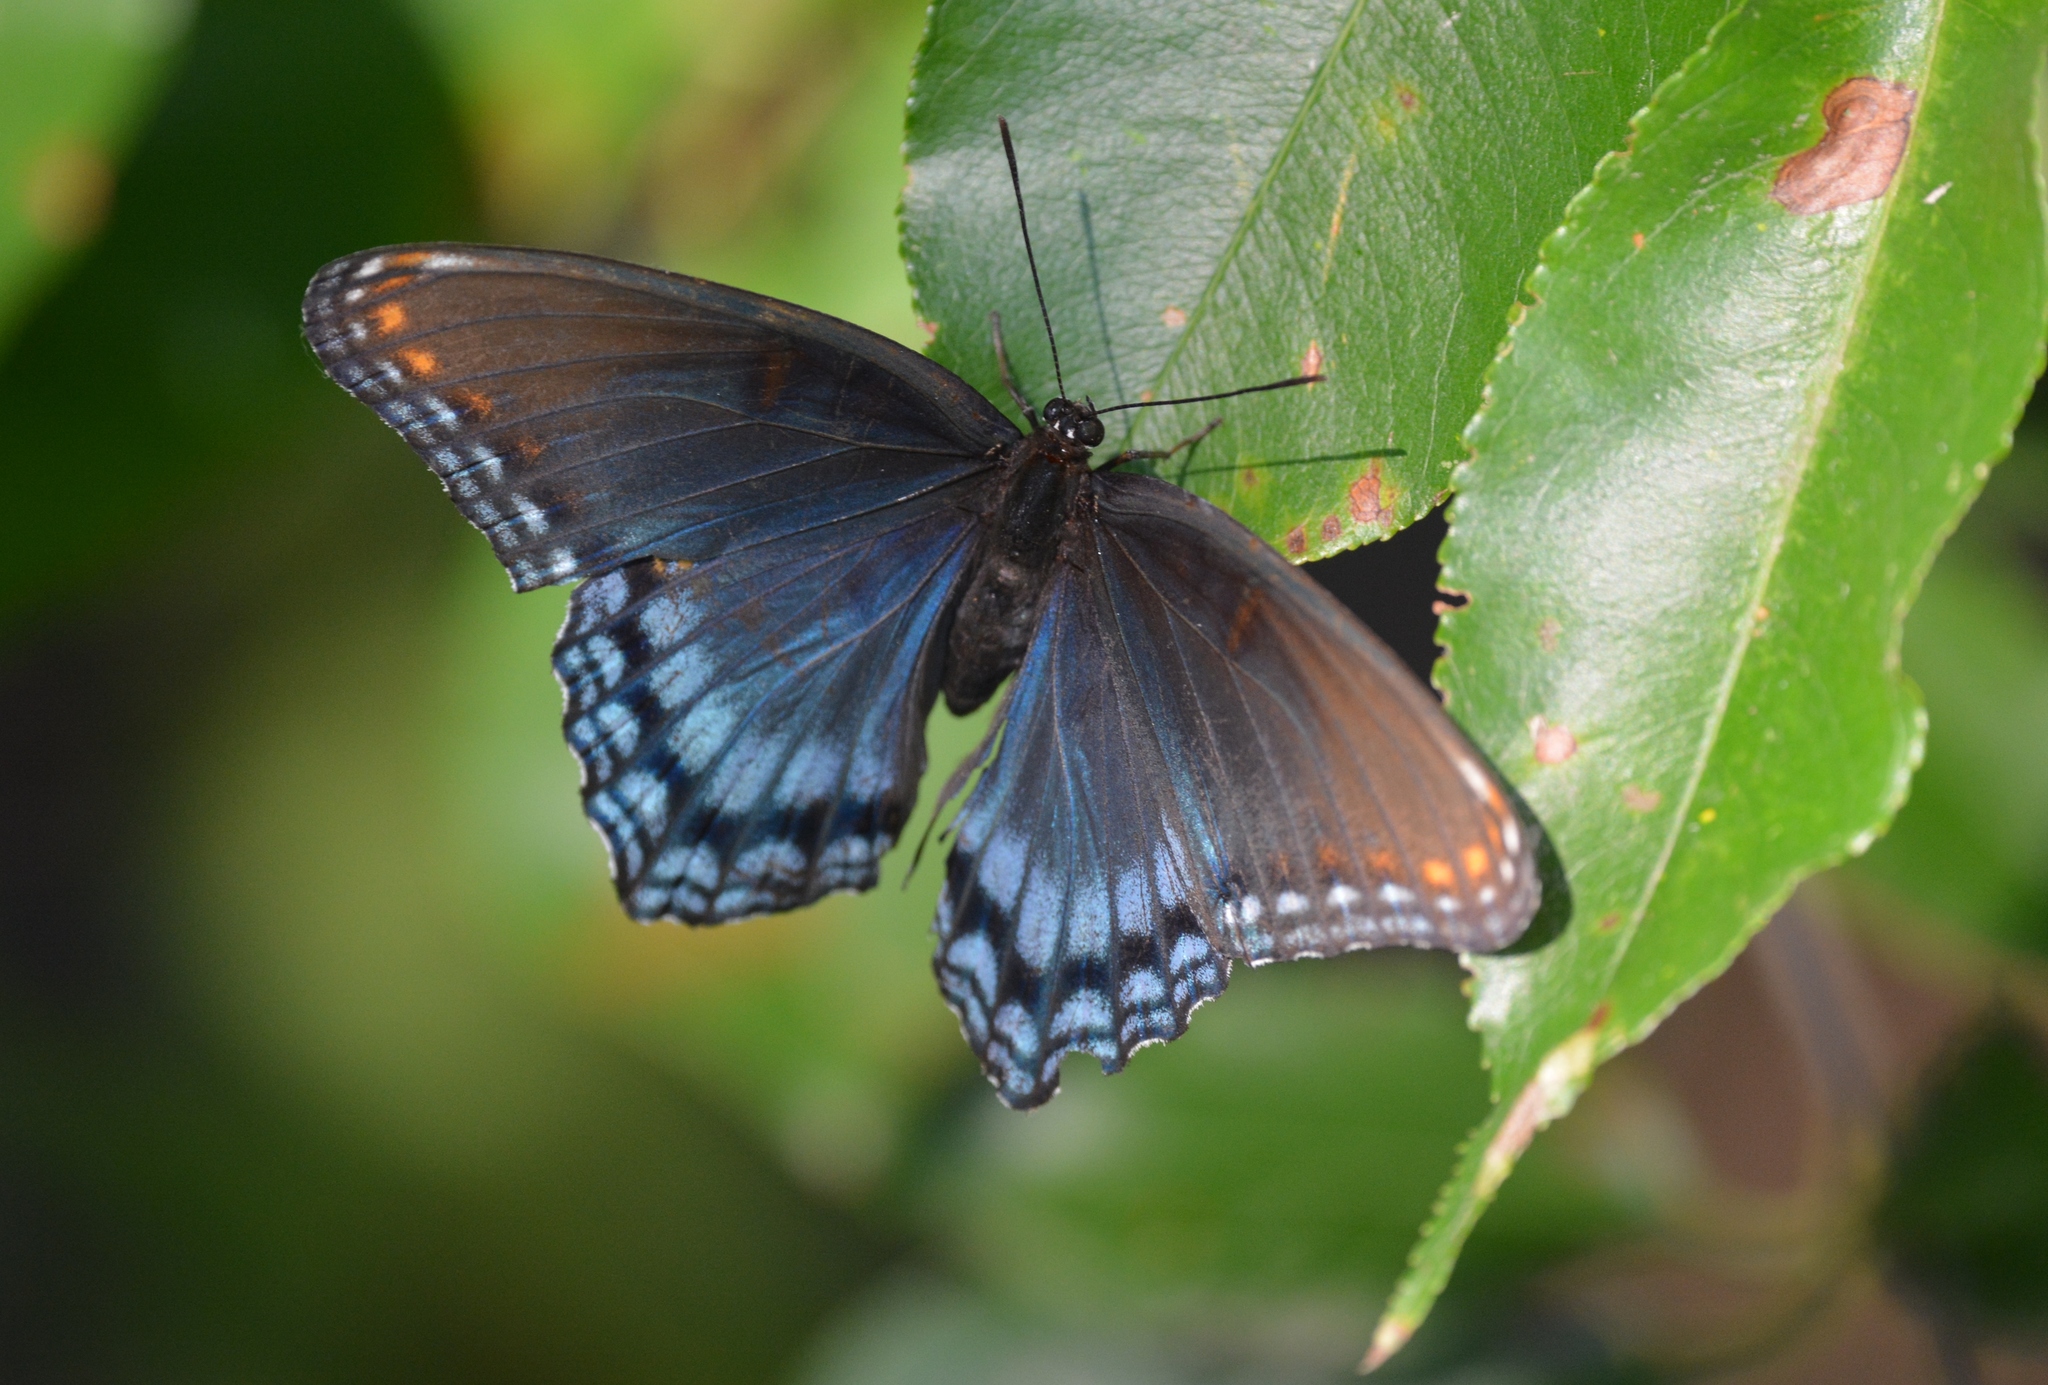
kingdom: Animalia
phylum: Arthropoda
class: Insecta
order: Lepidoptera
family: Nymphalidae
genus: Limenitis
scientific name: Limenitis astyanax
